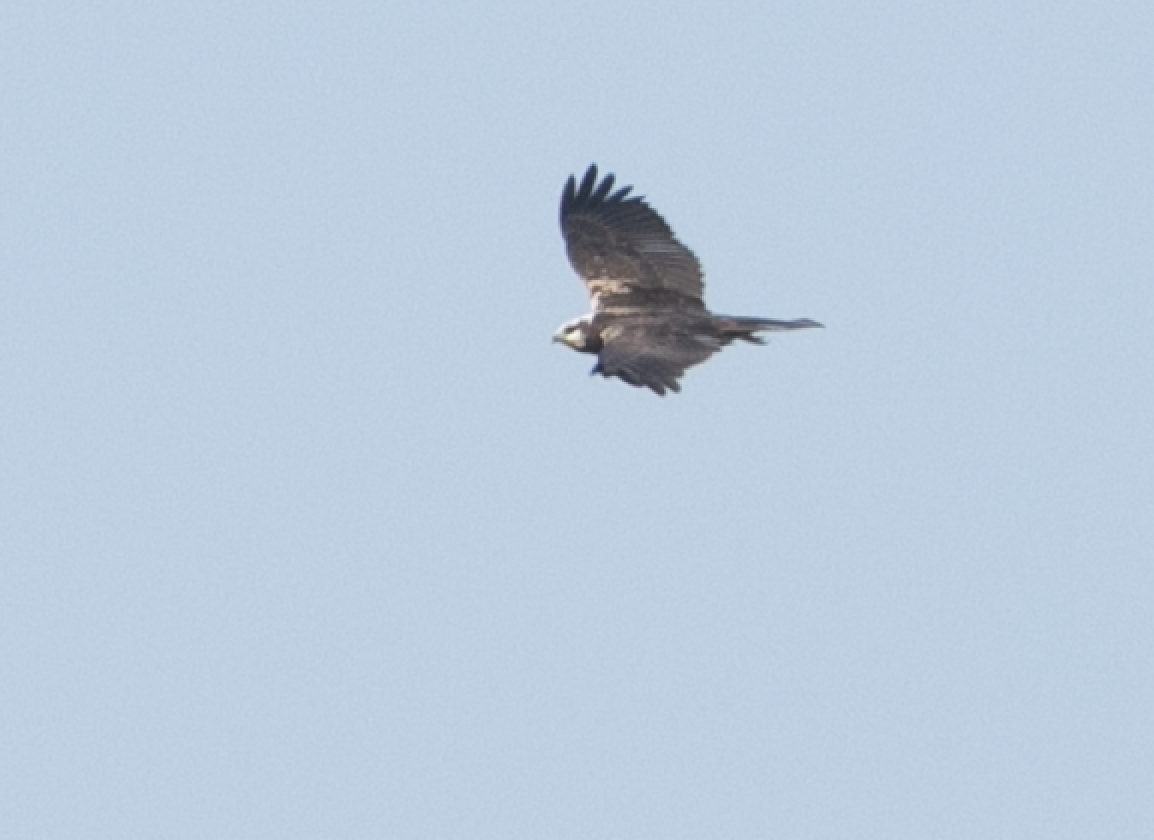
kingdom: Animalia
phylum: Chordata
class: Aves
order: Accipitriformes
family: Accipitridae
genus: Circus
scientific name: Circus aeruginosus
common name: Western marsh harrier
